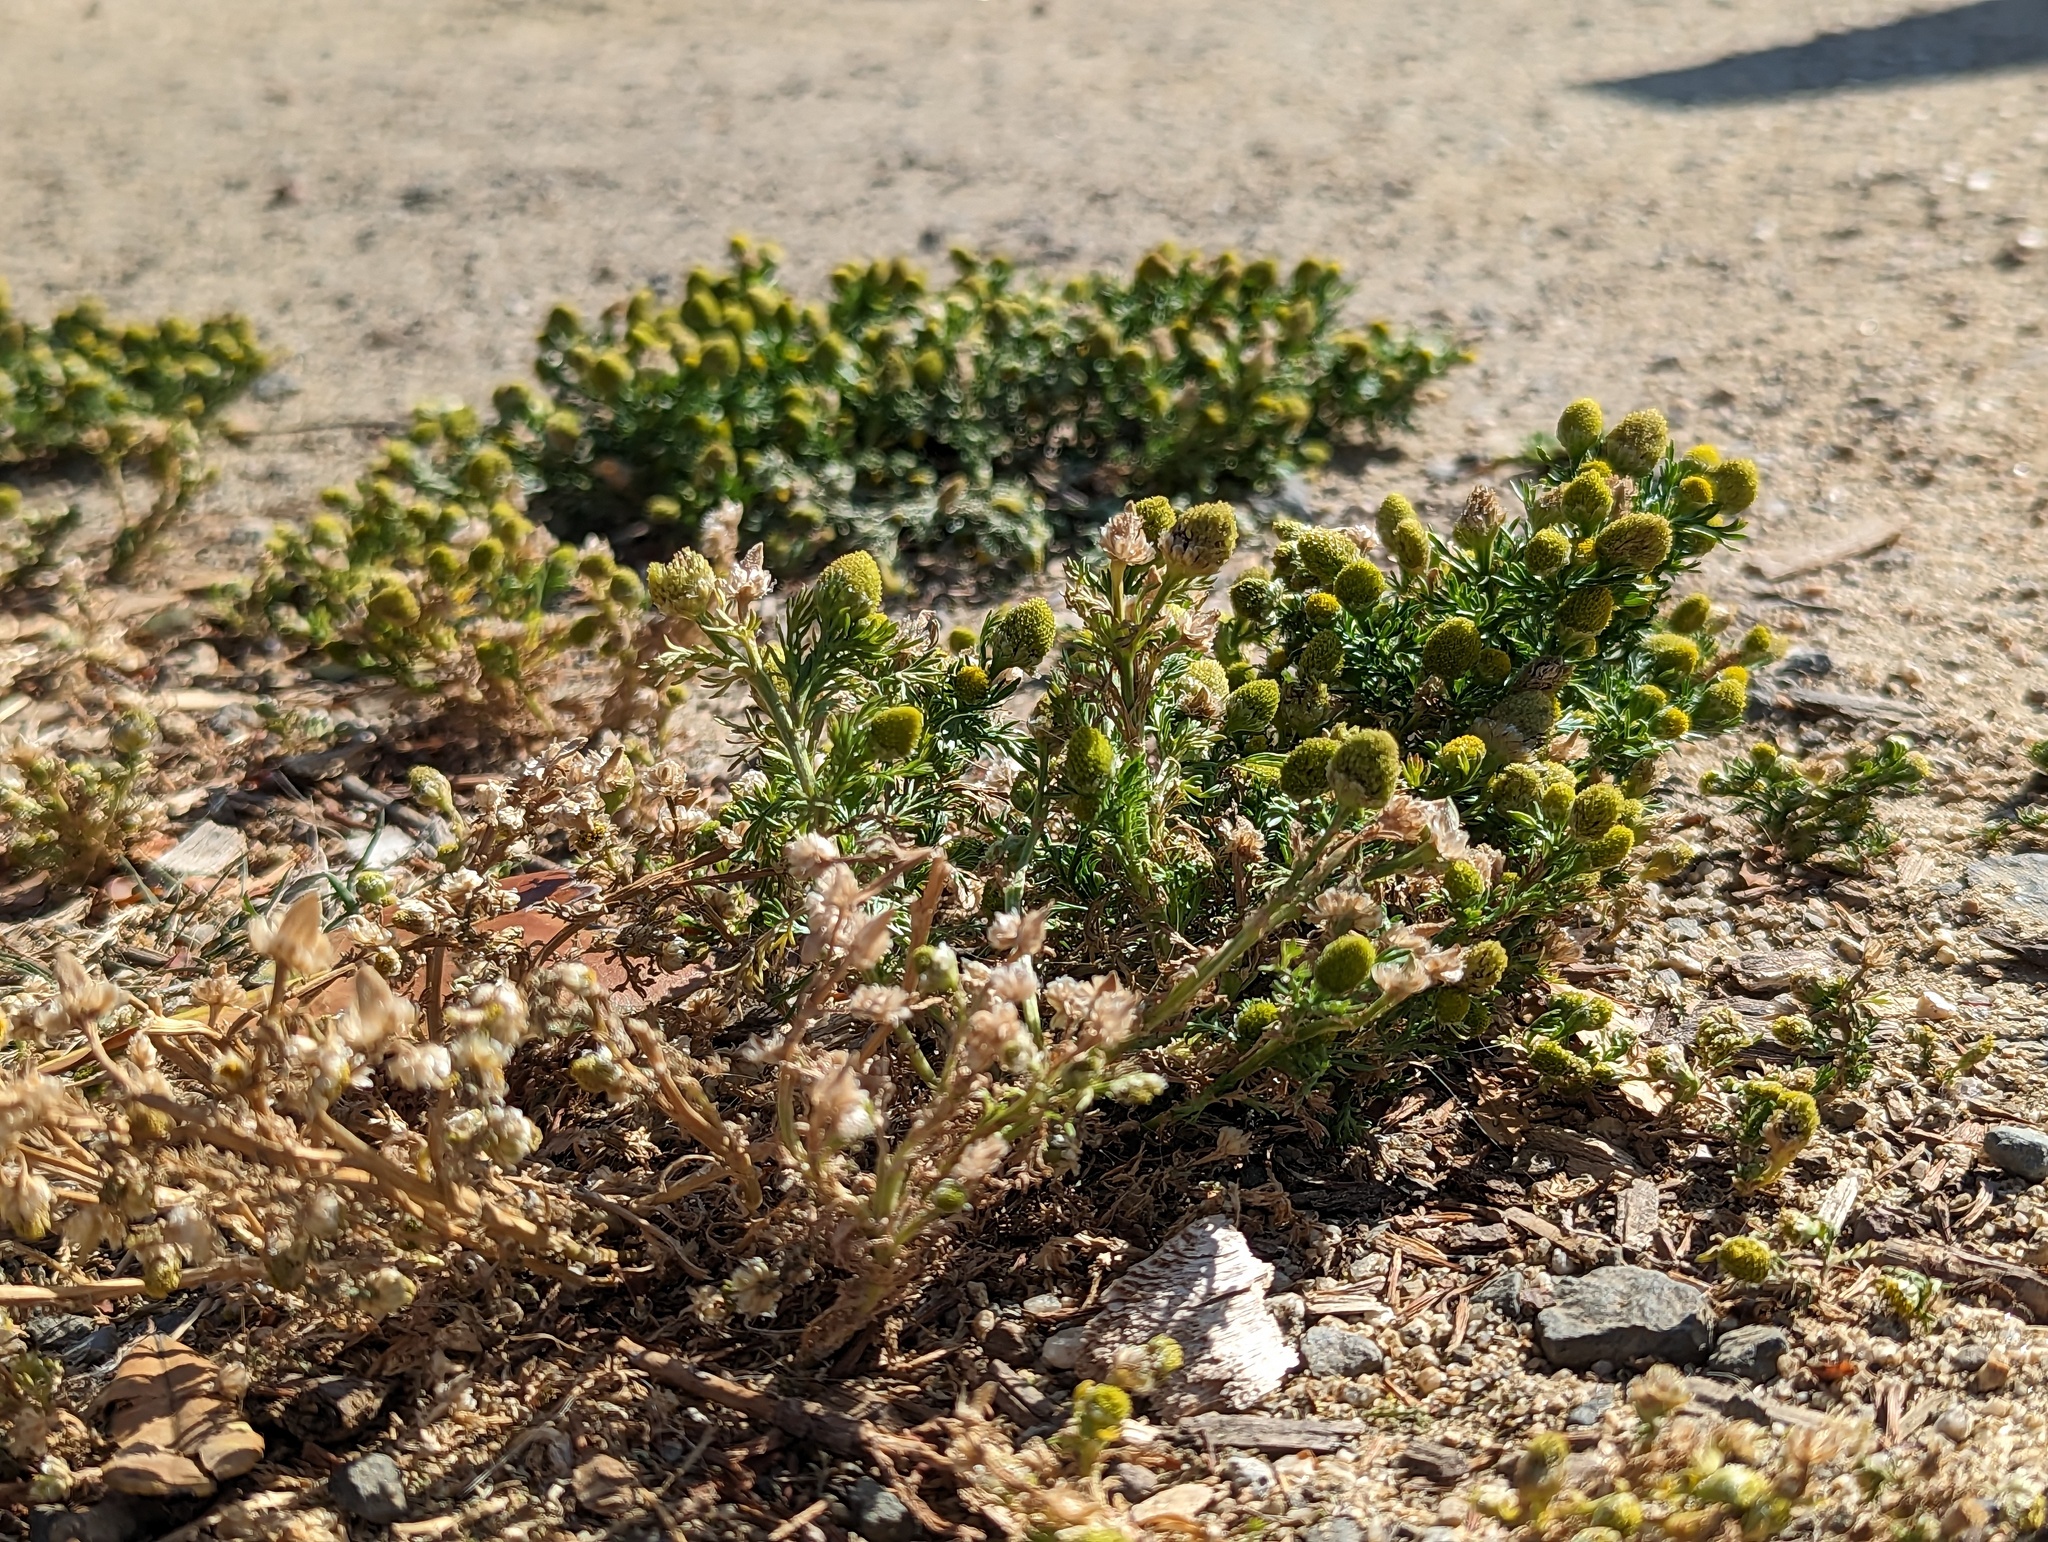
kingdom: Plantae
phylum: Tracheophyta
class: Magnoliopsida
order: Asterales
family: Asteraceae
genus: Matricaria
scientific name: Matricaria discoidea
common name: Disc mayweed
